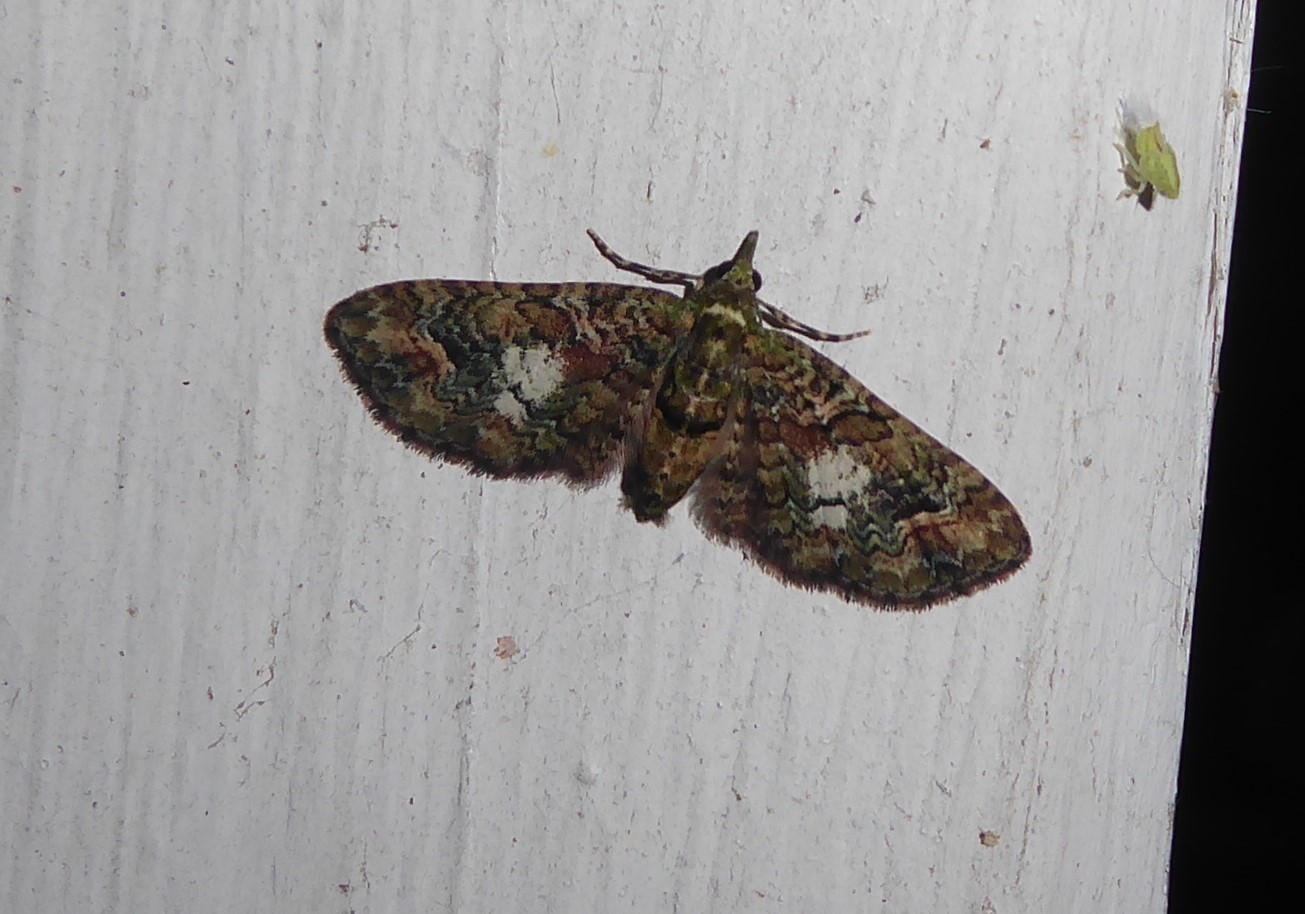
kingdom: Animalia
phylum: Arthropoda
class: Insecta
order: Lepidoptera
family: Geometridae
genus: Idaea
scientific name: Idaea mutanda
